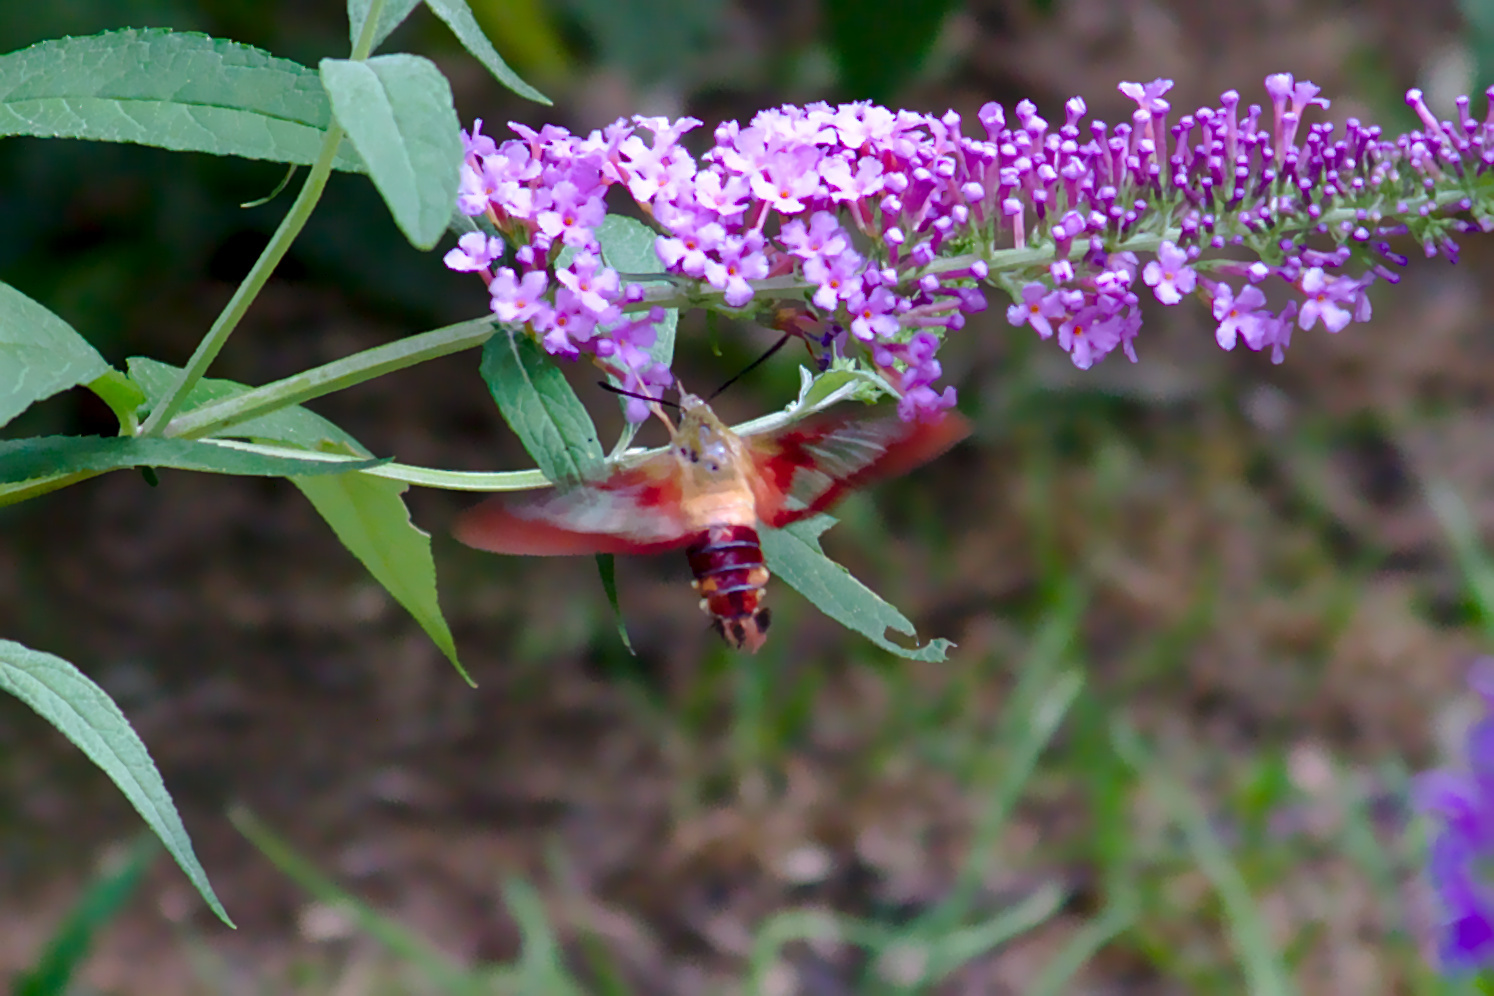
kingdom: Animalia
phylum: Arthropoda
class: Insecta
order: Lepidoptera
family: Sphingidae
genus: Hemaris
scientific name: Hemaris thysbe
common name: Common clear-wing
